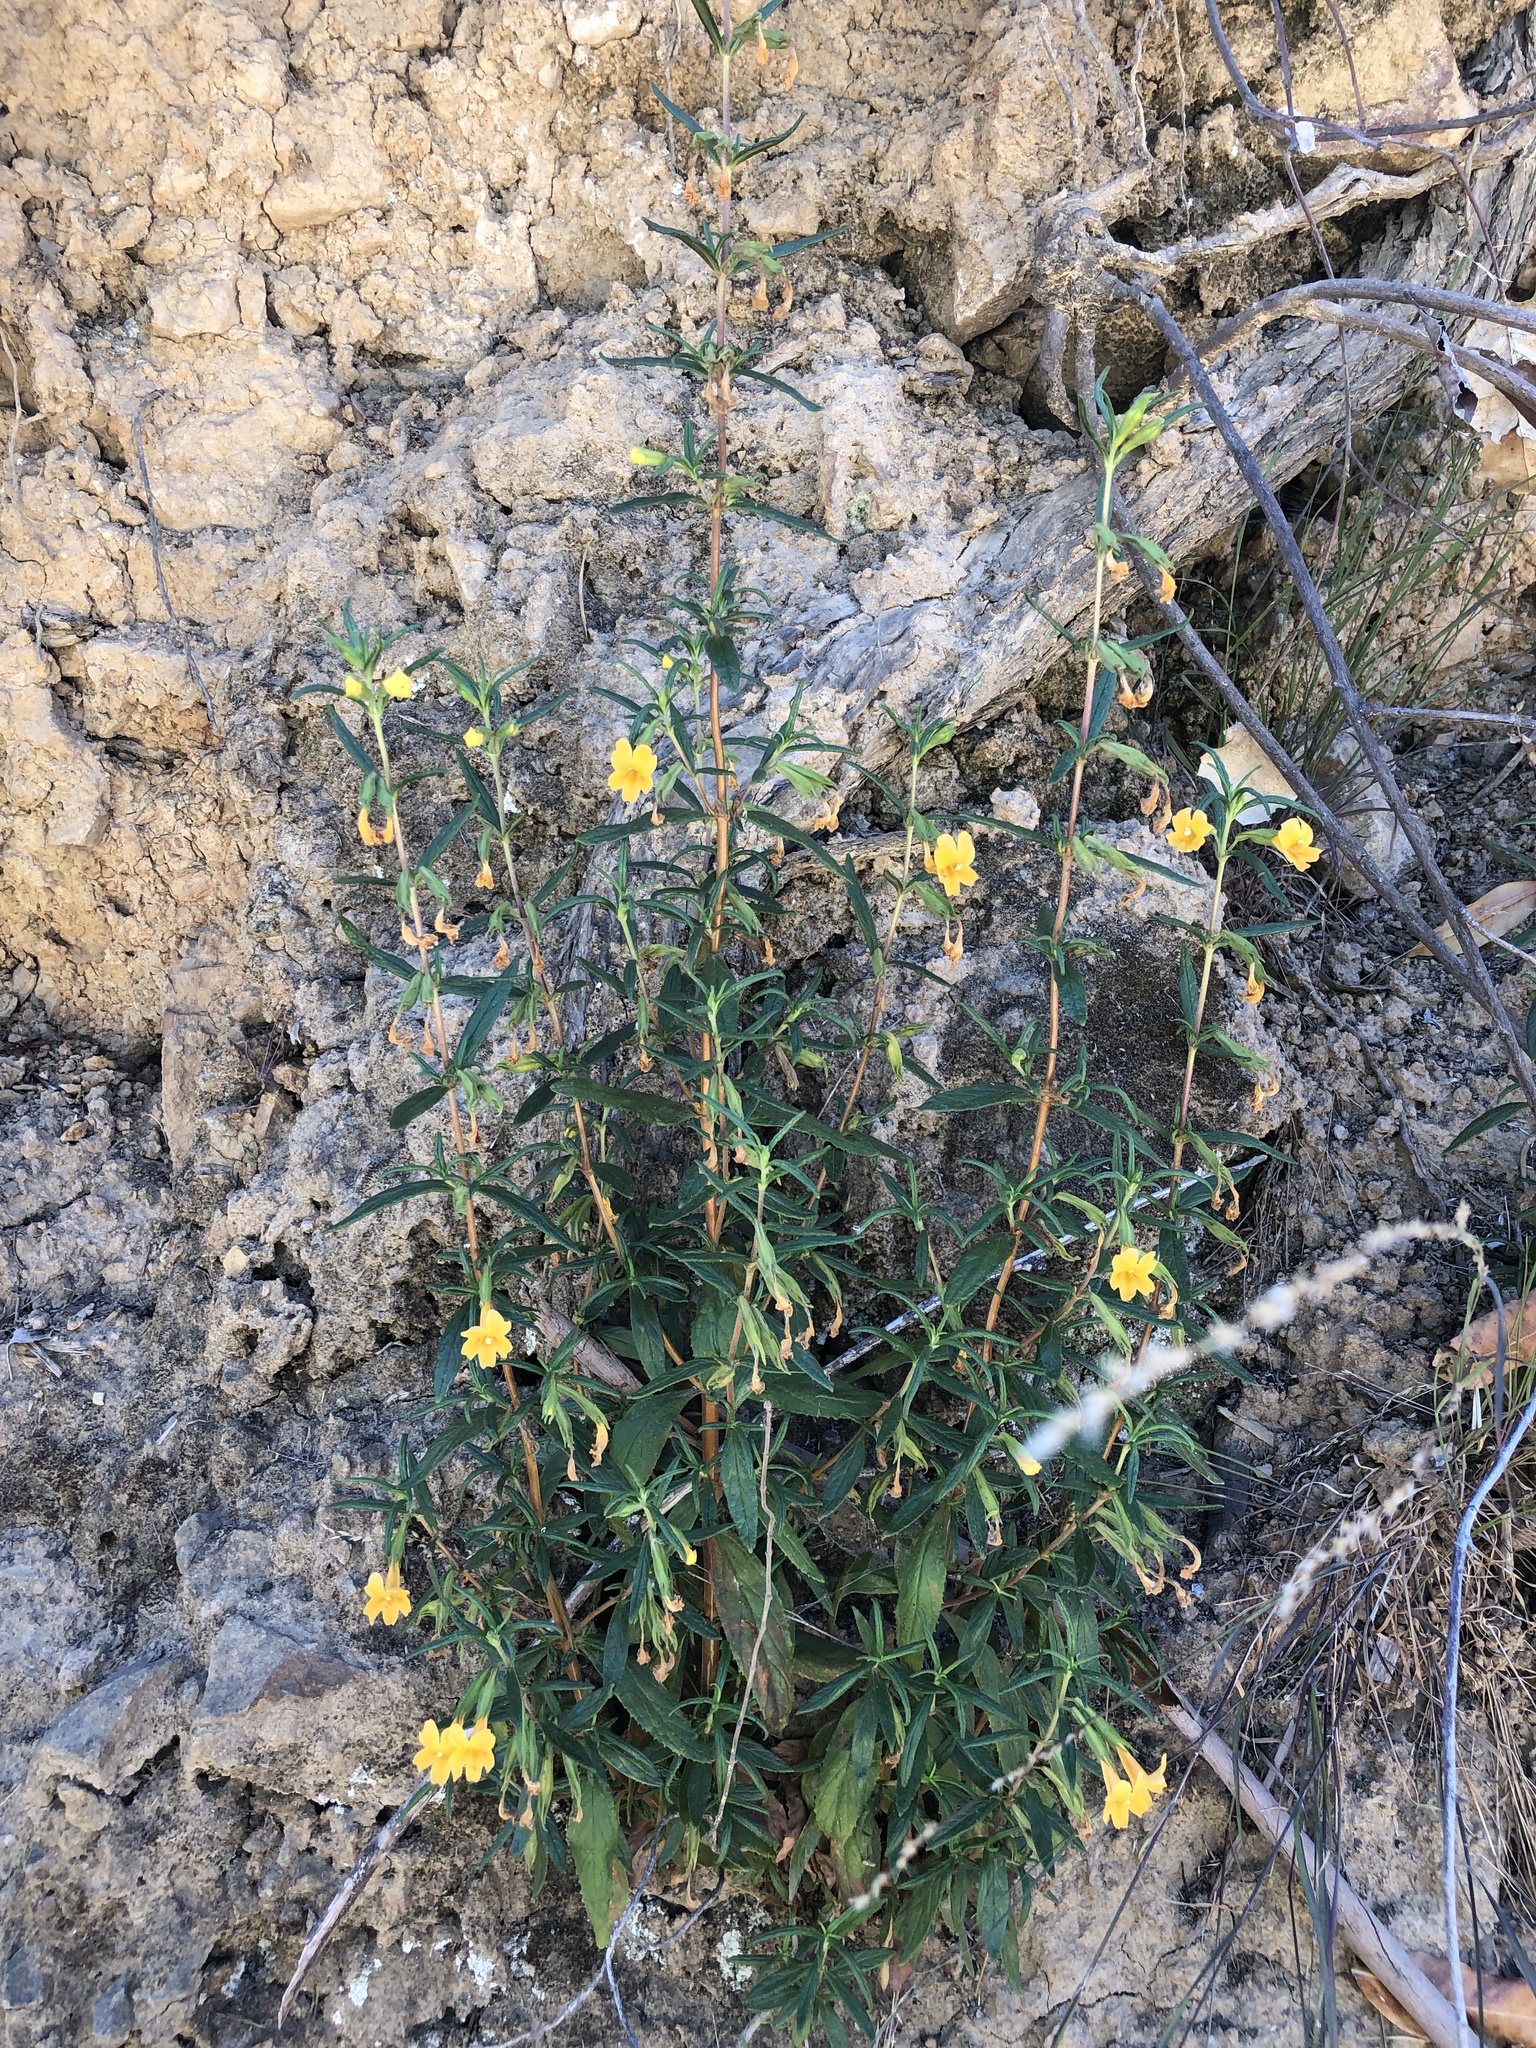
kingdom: Plantae
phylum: Tracheophyta
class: Magnoliopsida
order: Lamiales
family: Phrymaceae
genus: Diplacus
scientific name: Diplacus aurantiacus
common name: Bush monkey-flower
